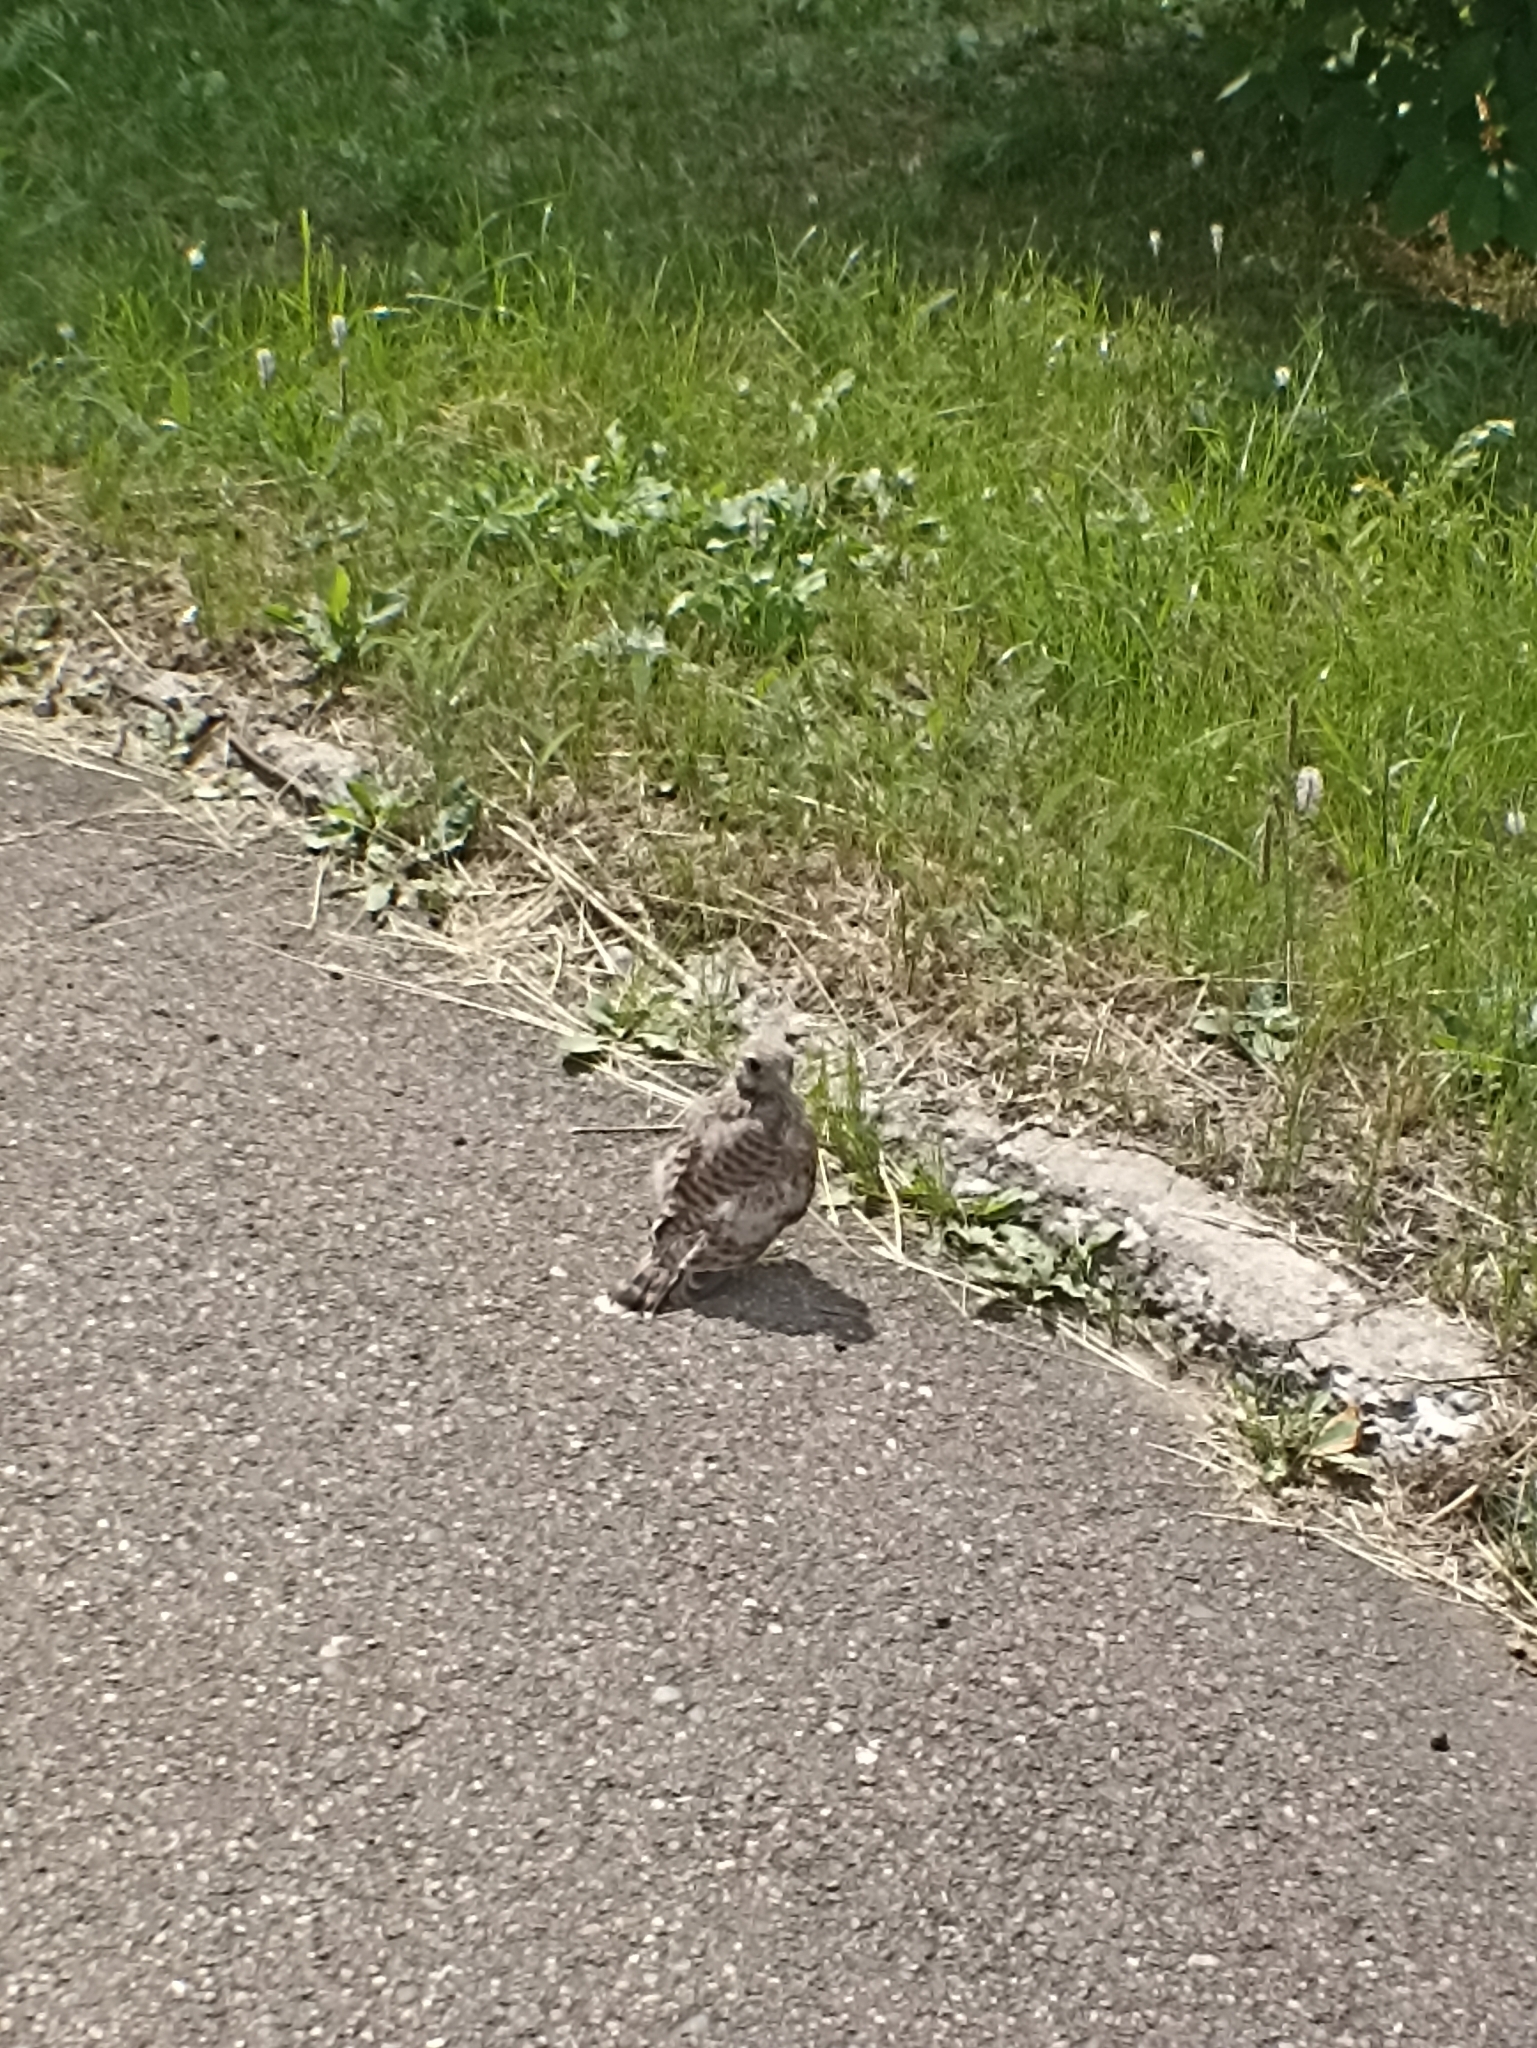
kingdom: Animalia
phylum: Chordata
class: Aves
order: Falconiformes
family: Falconidae
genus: Falco
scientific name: Falco tinnunculus
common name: Common kestrel
